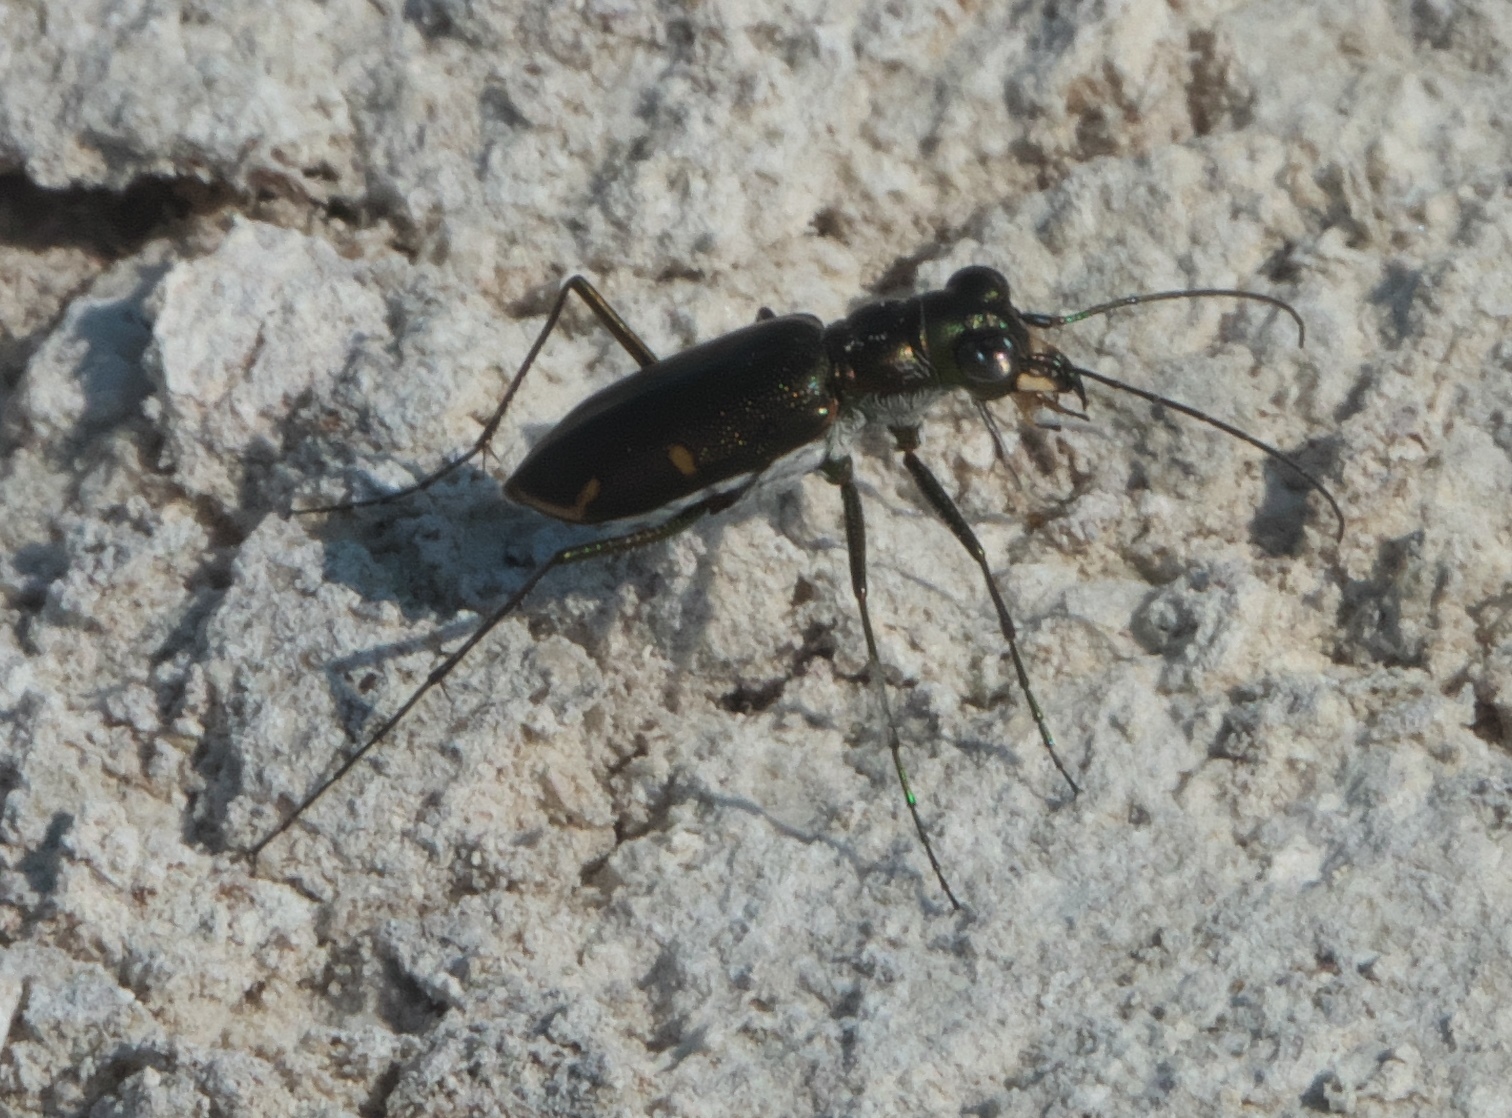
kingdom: Animalia
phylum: Arthropoda
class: Insecta
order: Coleoptera
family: Carabidae
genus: Eunota
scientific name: Eunota severa
